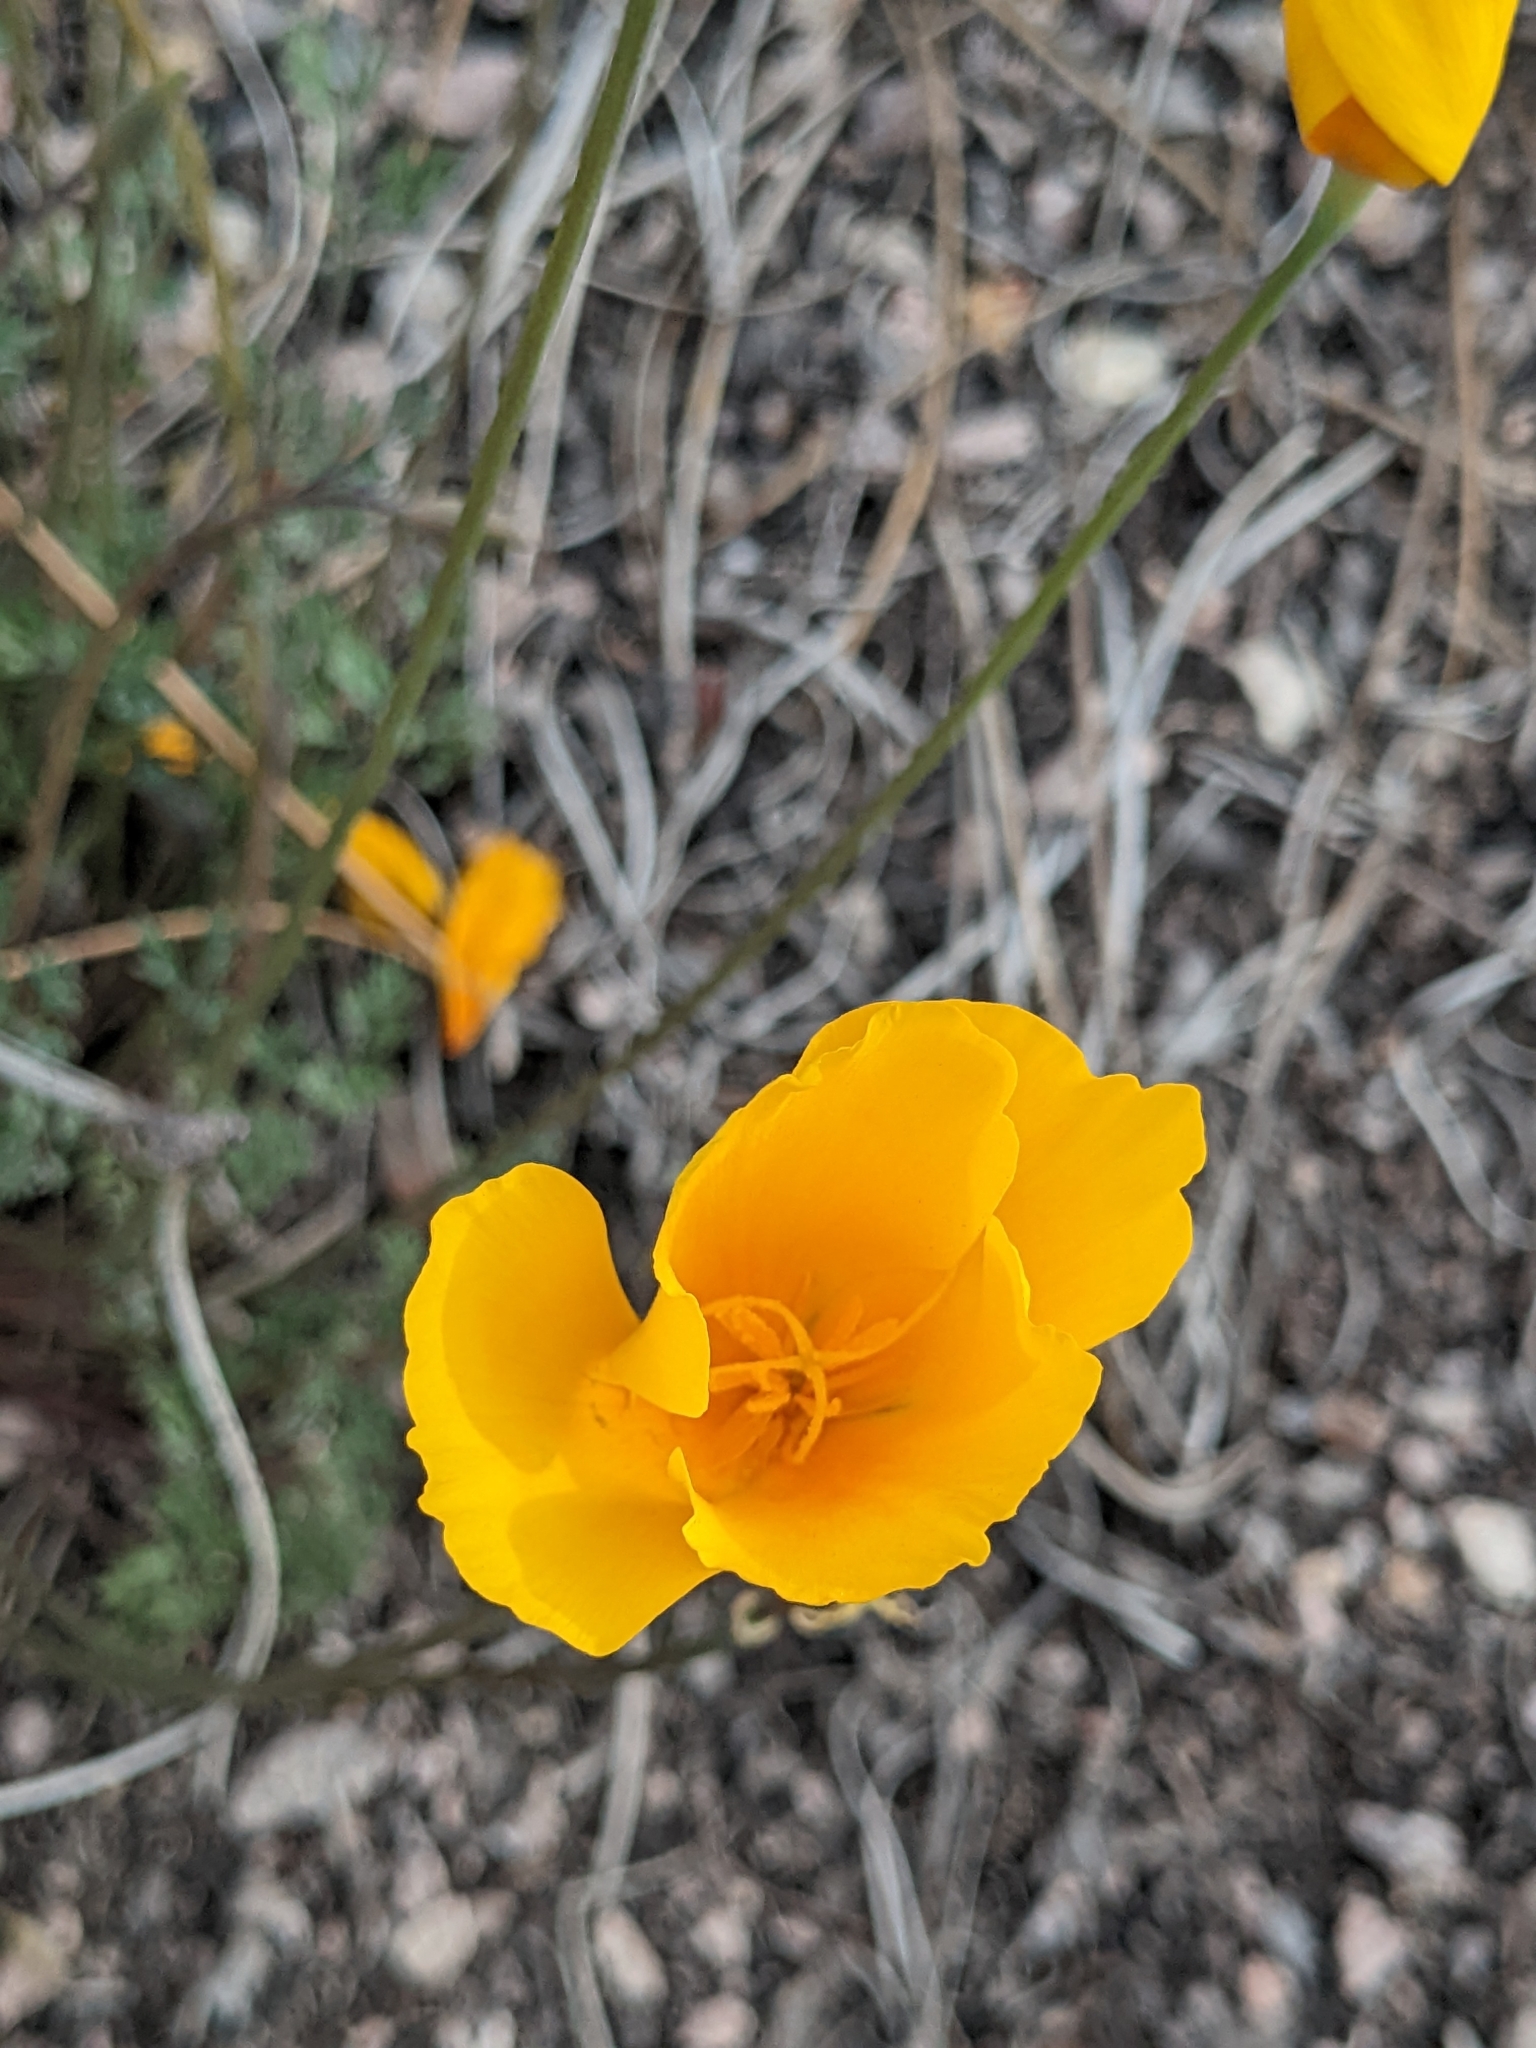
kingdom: Plantae
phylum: Tracheophyta
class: Magnoliopsida
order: Ranunculales
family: Papaveraceae
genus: Eschscholzia
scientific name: Eschscholzia caespitosa
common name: Tufted california-poppy
